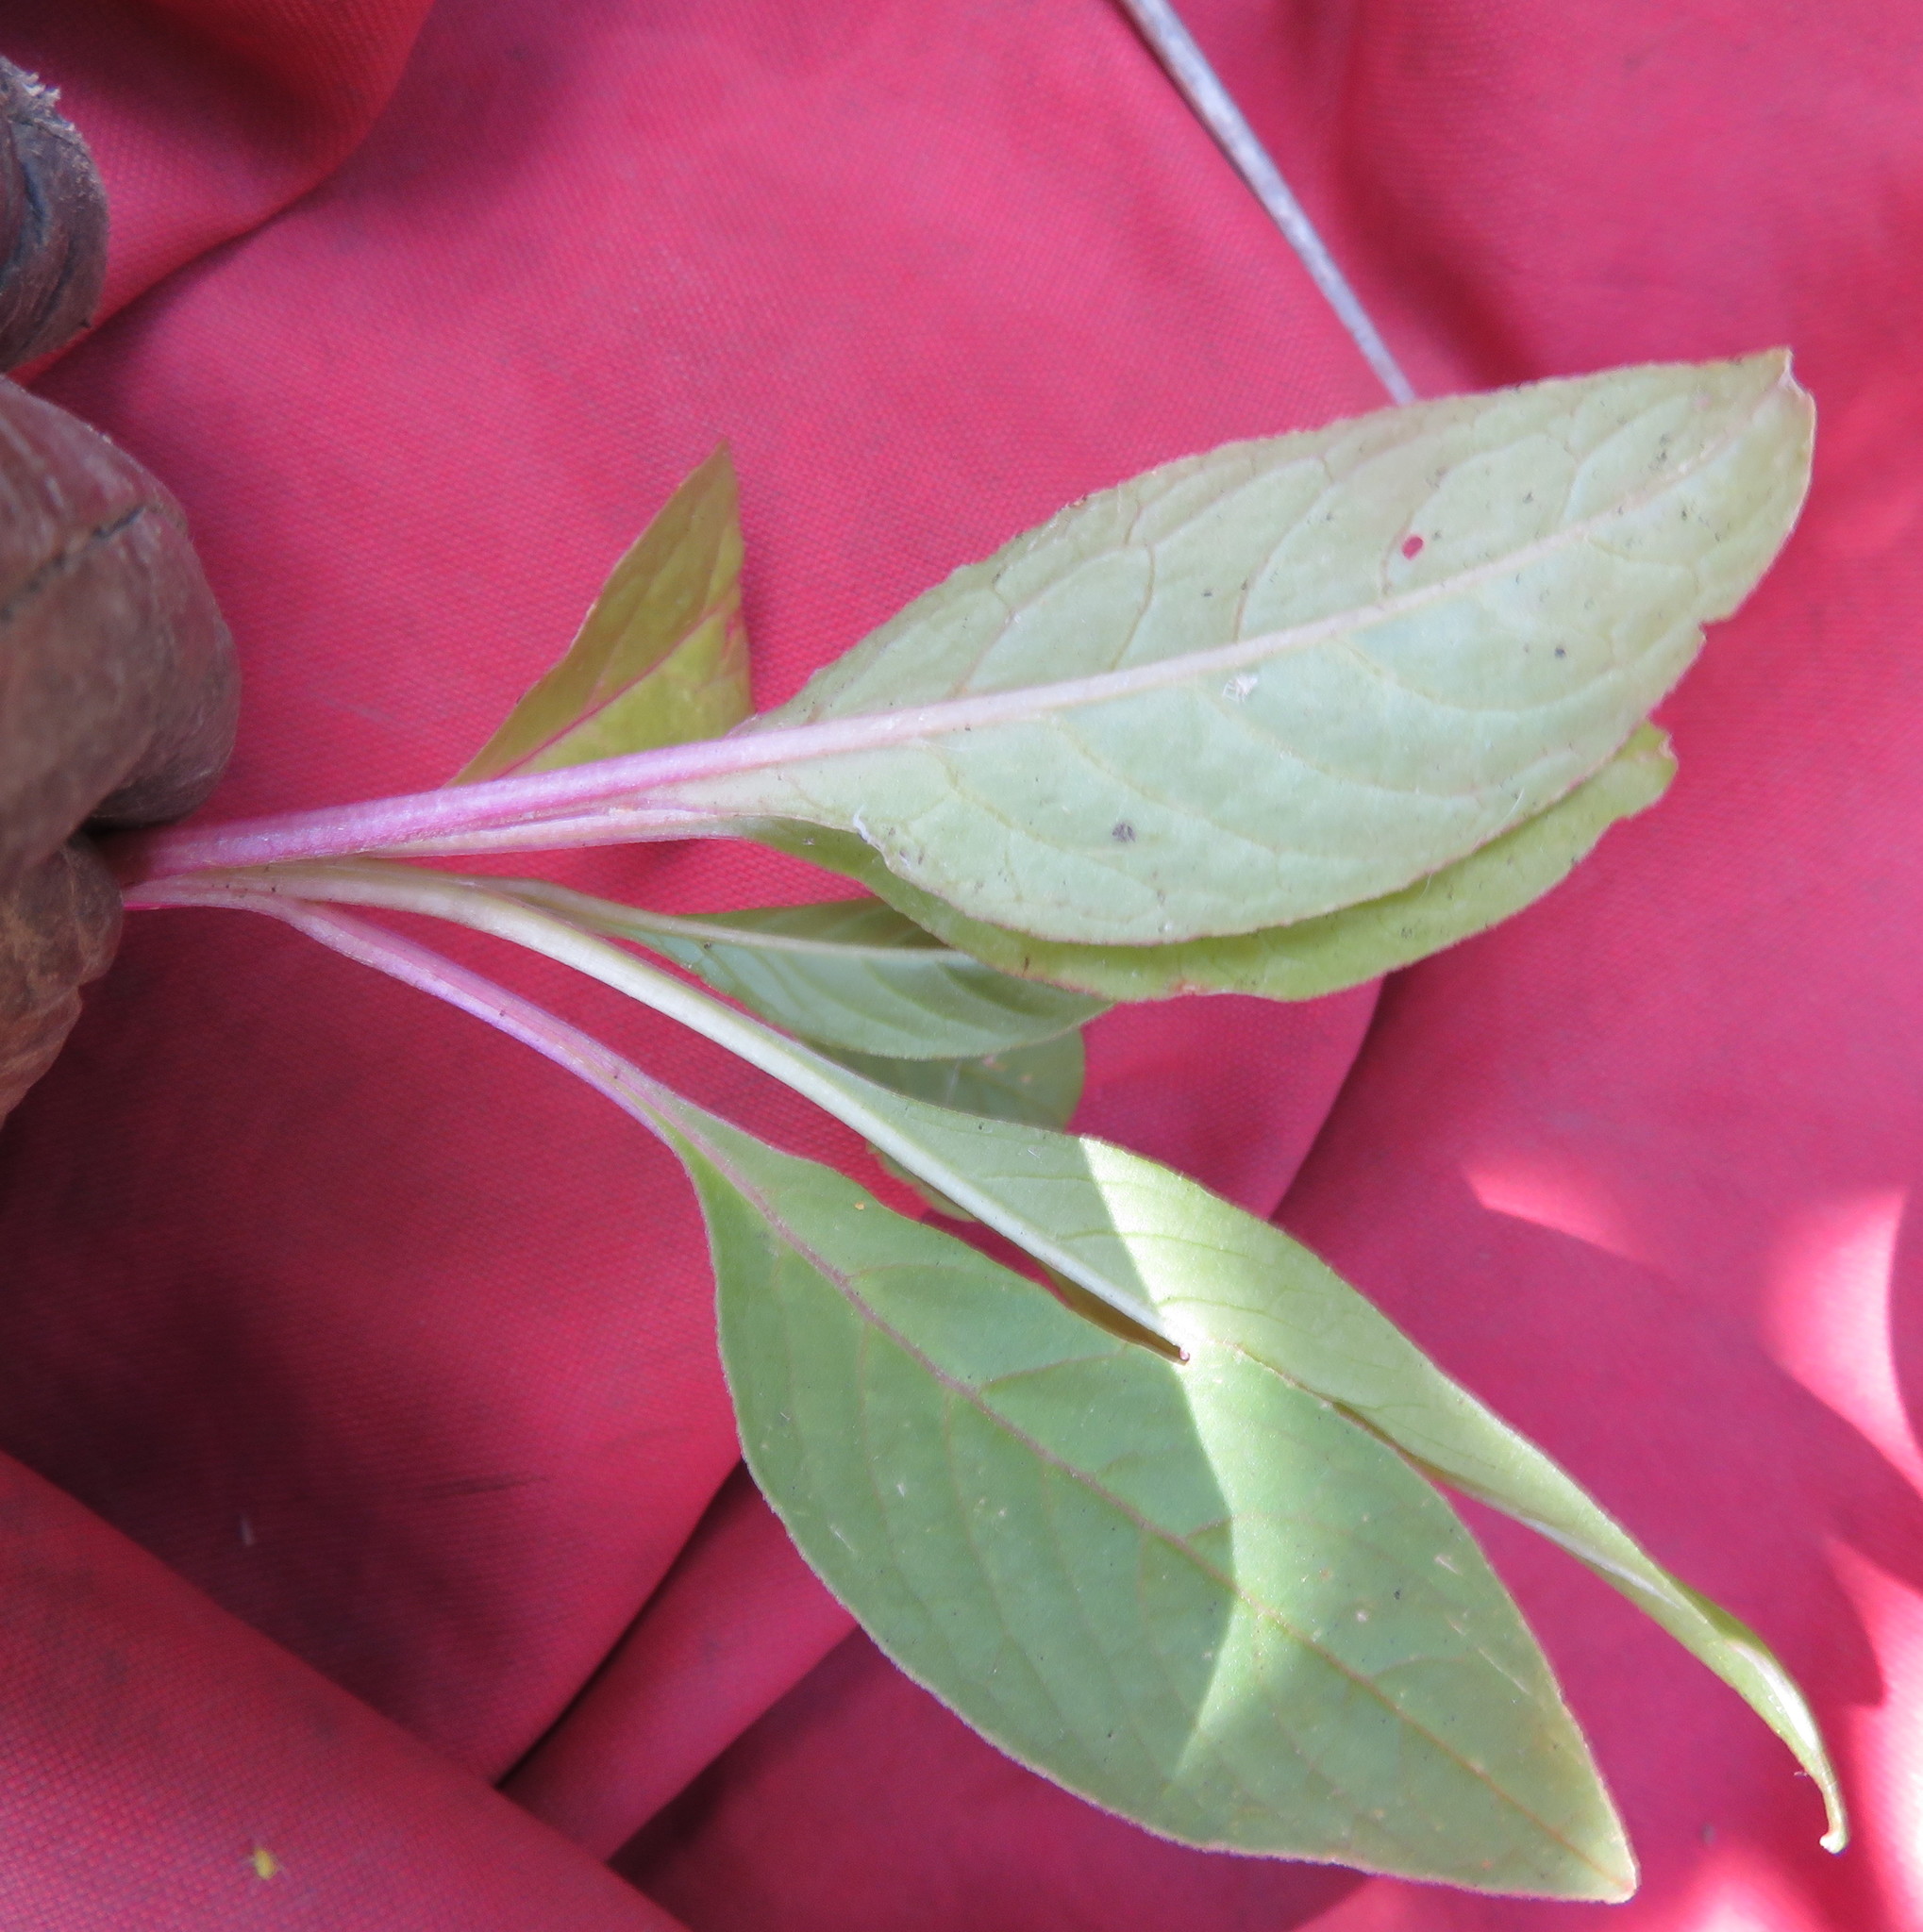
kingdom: Plantae
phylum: Tracheophyta
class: Magnoliopsida
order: Caryophyllales
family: Phytolaccaceae
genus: Phytolacca
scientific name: Phytolacca icosandra
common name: Button pokeweed
